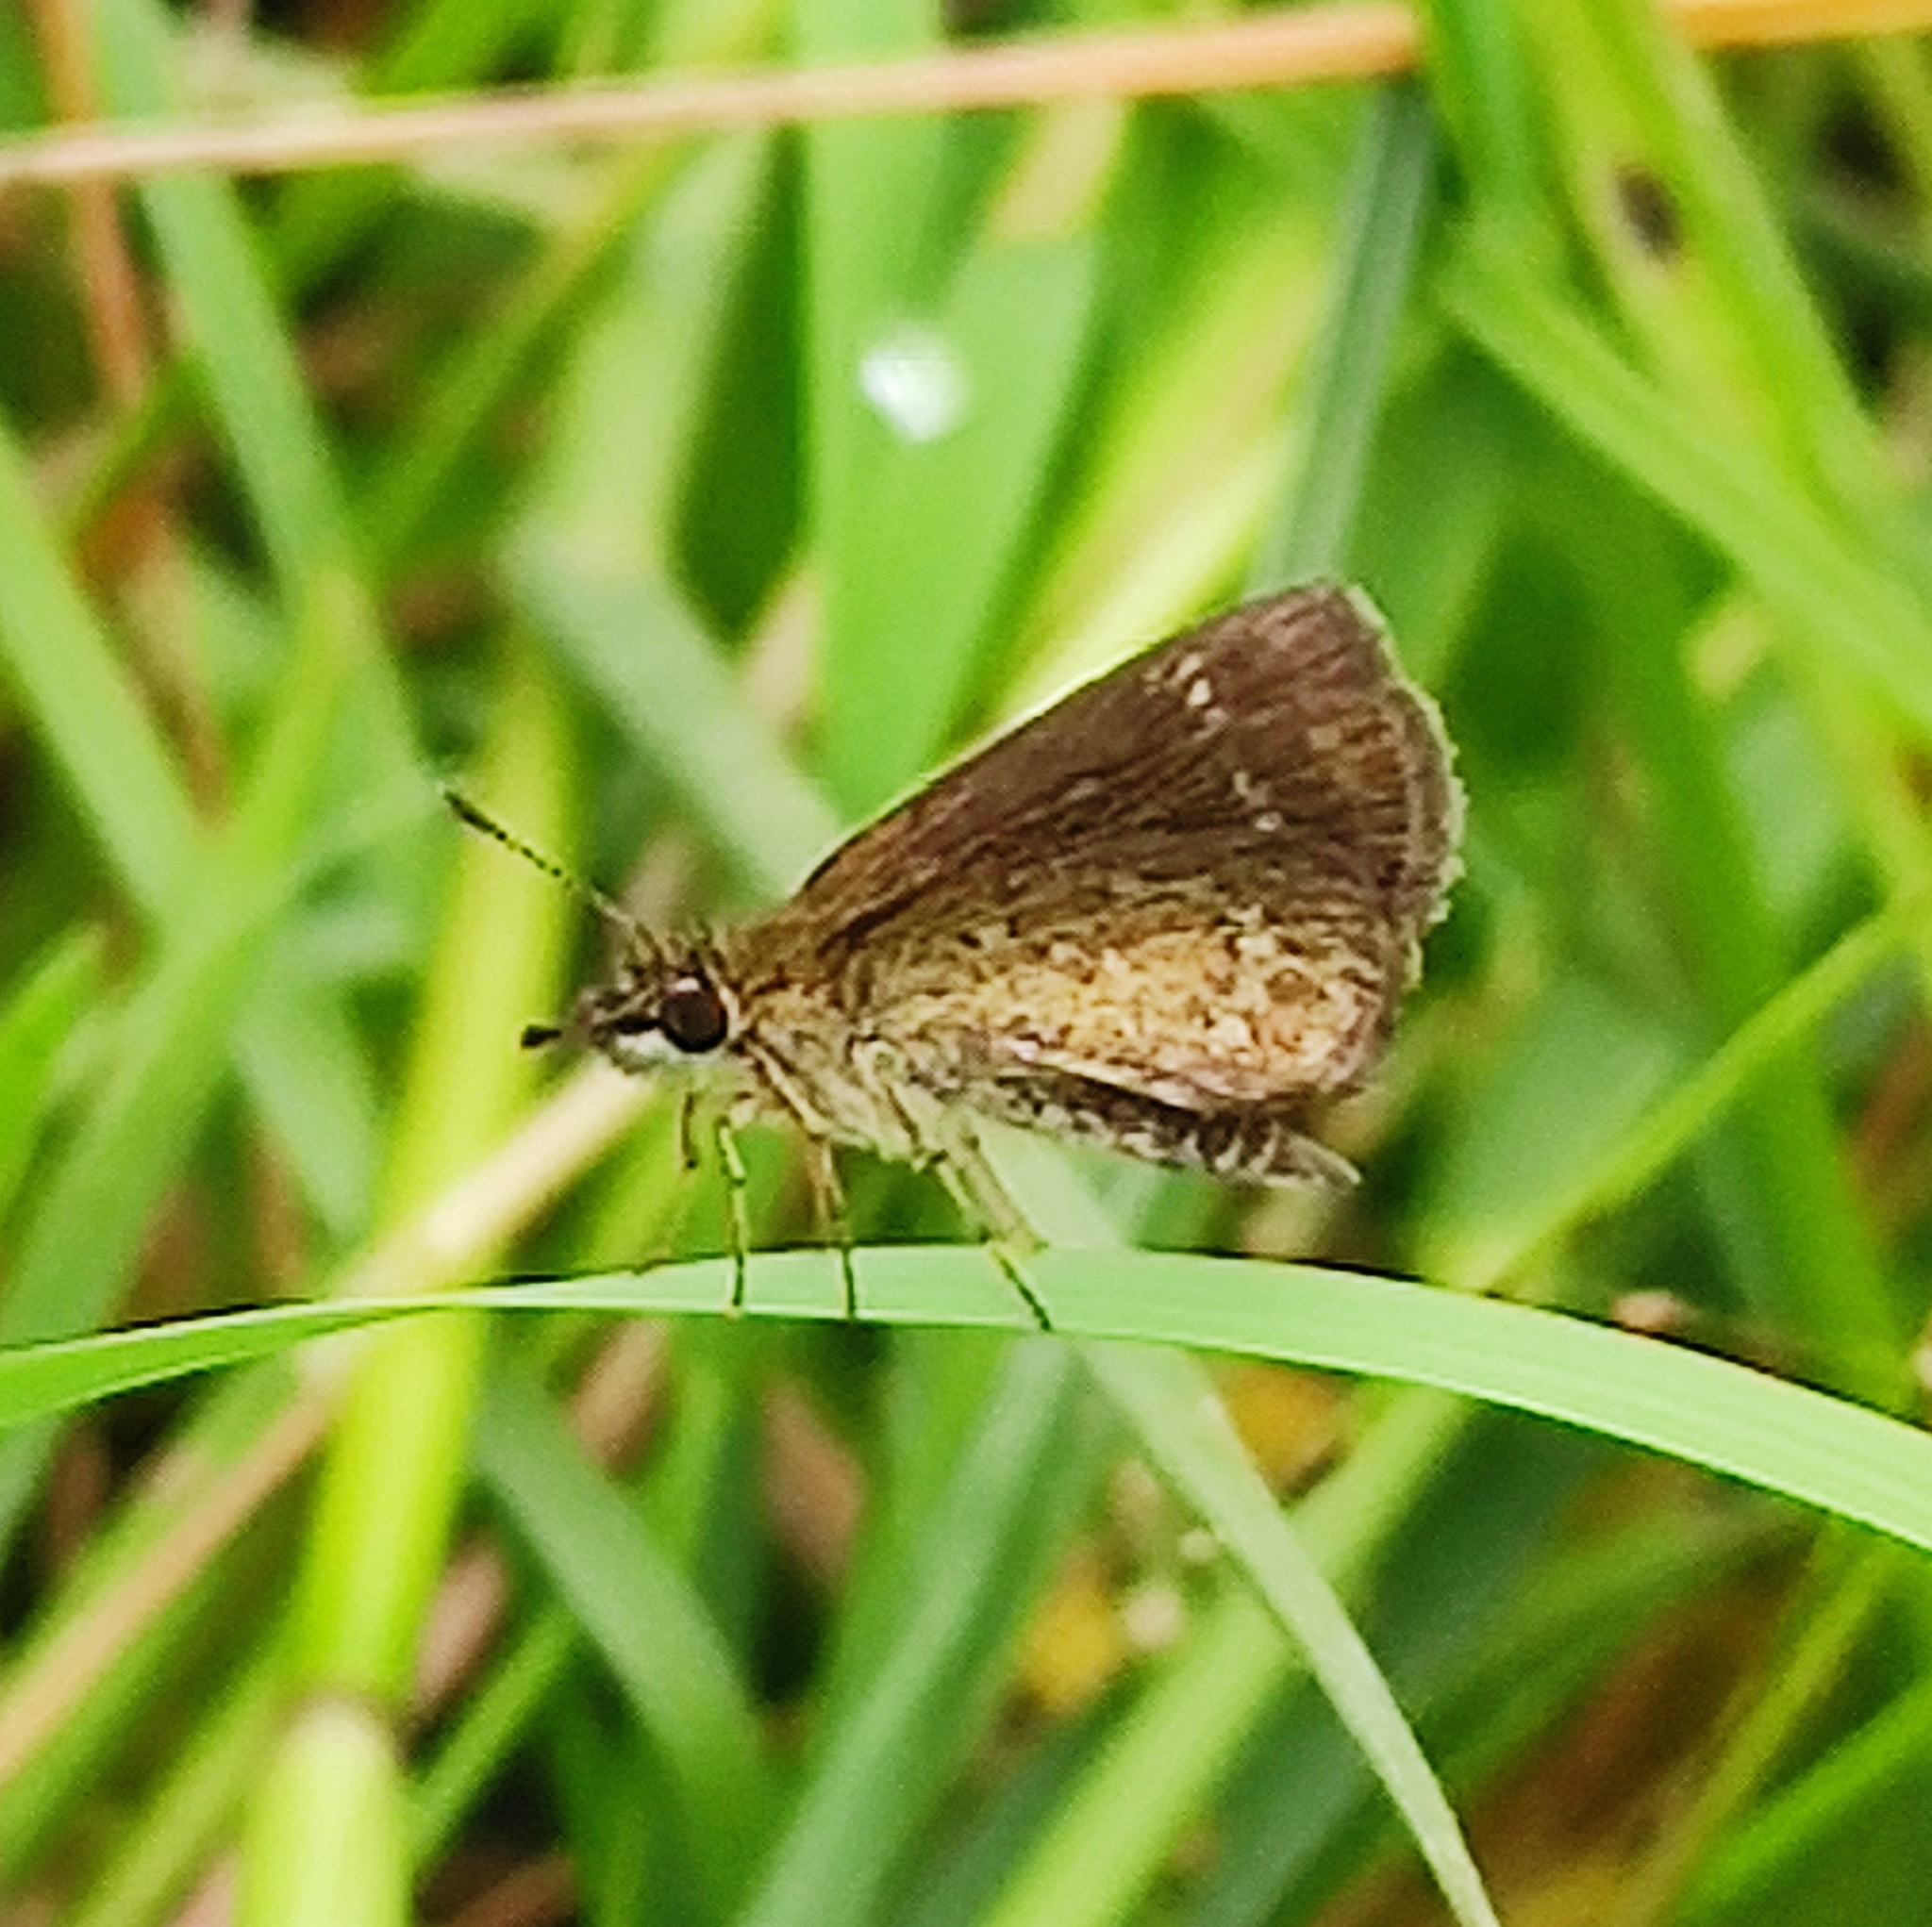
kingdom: Animalia
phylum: Arthropoda
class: Insecta
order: Lepidoptera
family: Hesperiidae
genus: Aeromachus
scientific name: Aeromachus pygmaeus
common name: Pygmy scrub hopper
